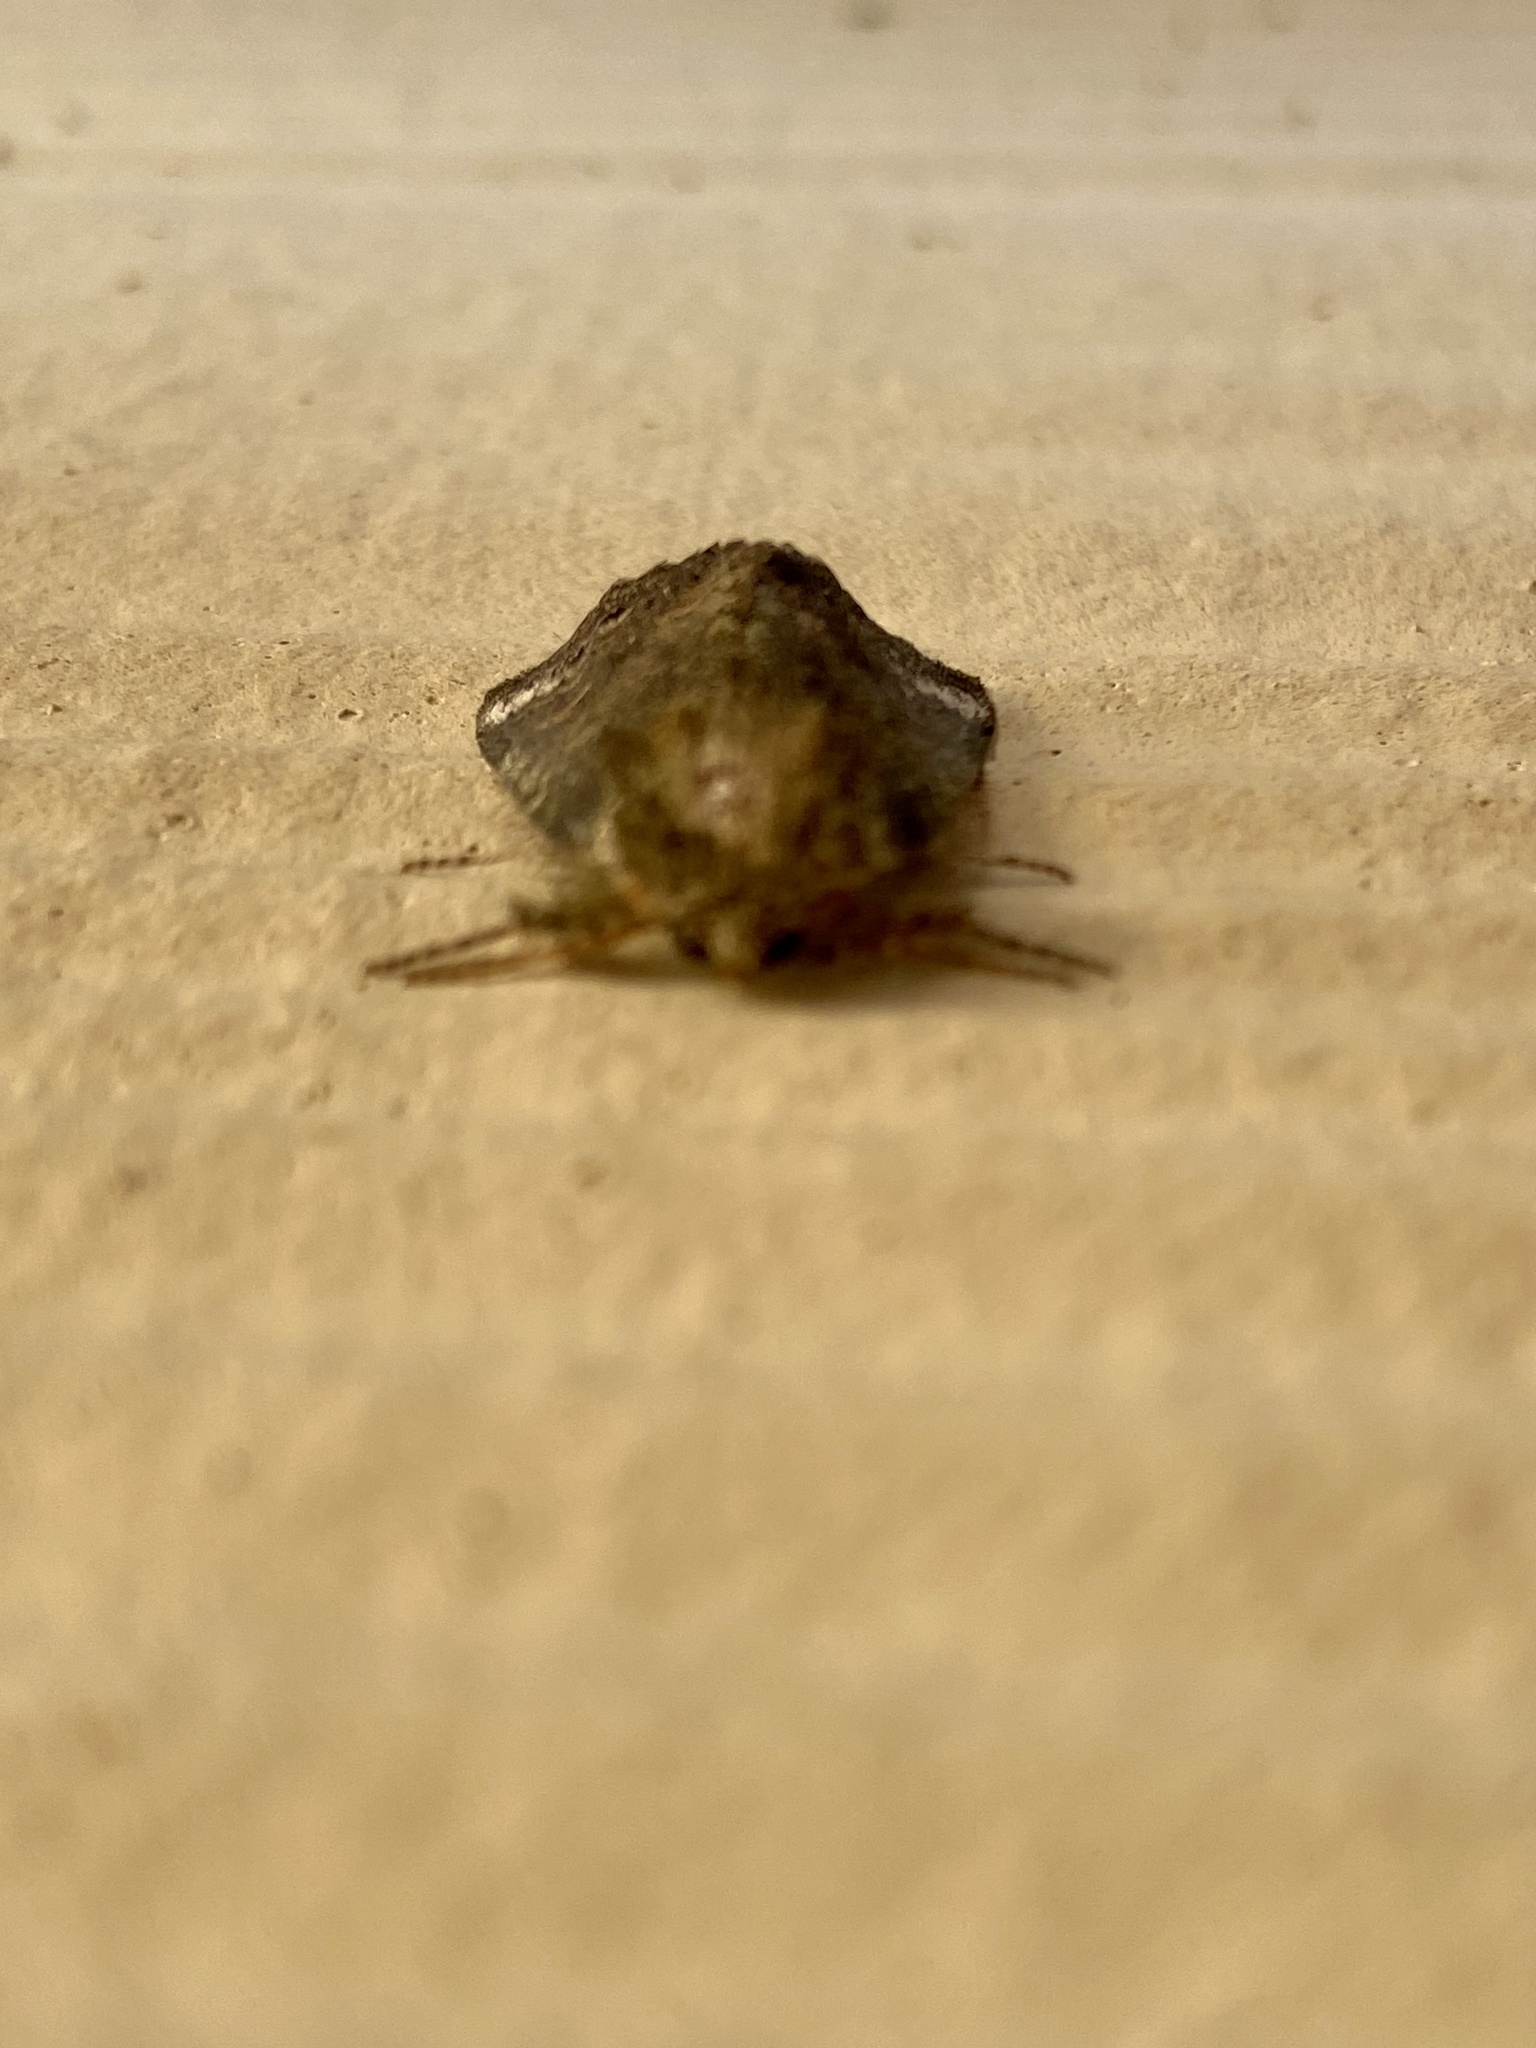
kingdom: Animalia
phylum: Arthropoda
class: Insecta
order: Lepidoptera
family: Notodontidae
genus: Rifargia
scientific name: Rifargia
